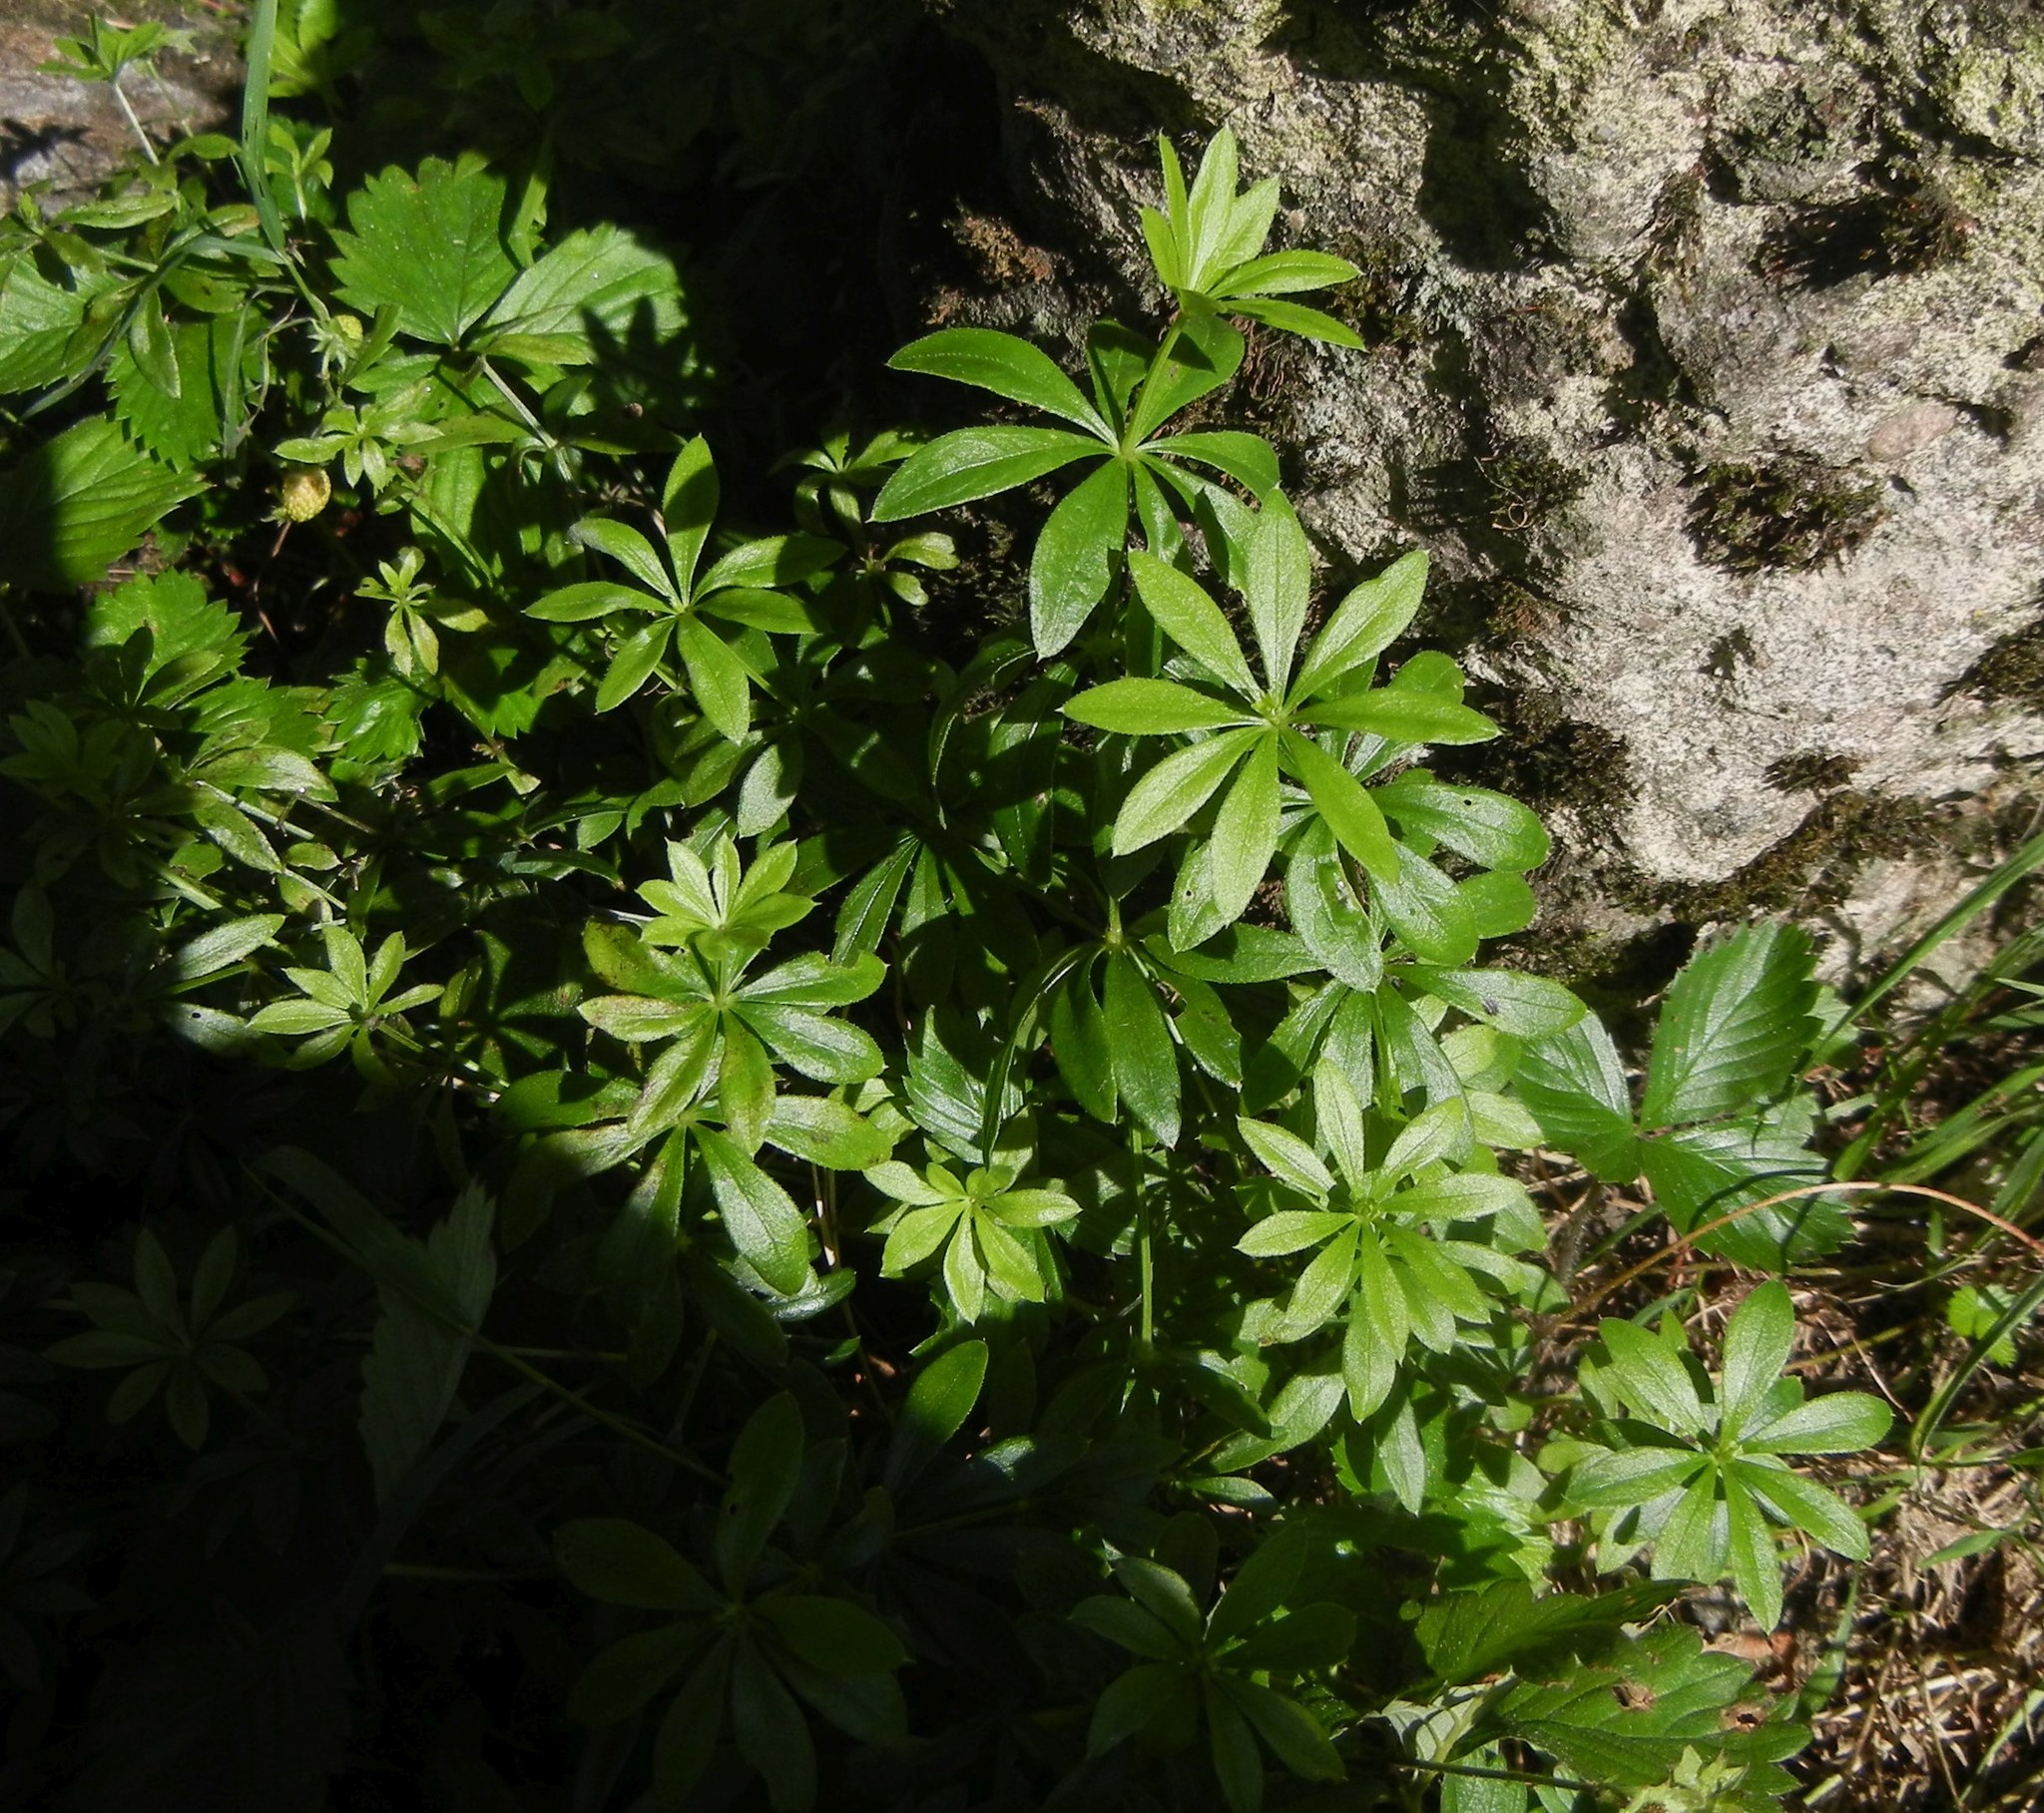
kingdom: Plantae
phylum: Tracheophyta
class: Magnoliopsida
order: Gentianales
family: Rubiaceae
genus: Galium
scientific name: Galium odoratum
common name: Sweet woodruff
